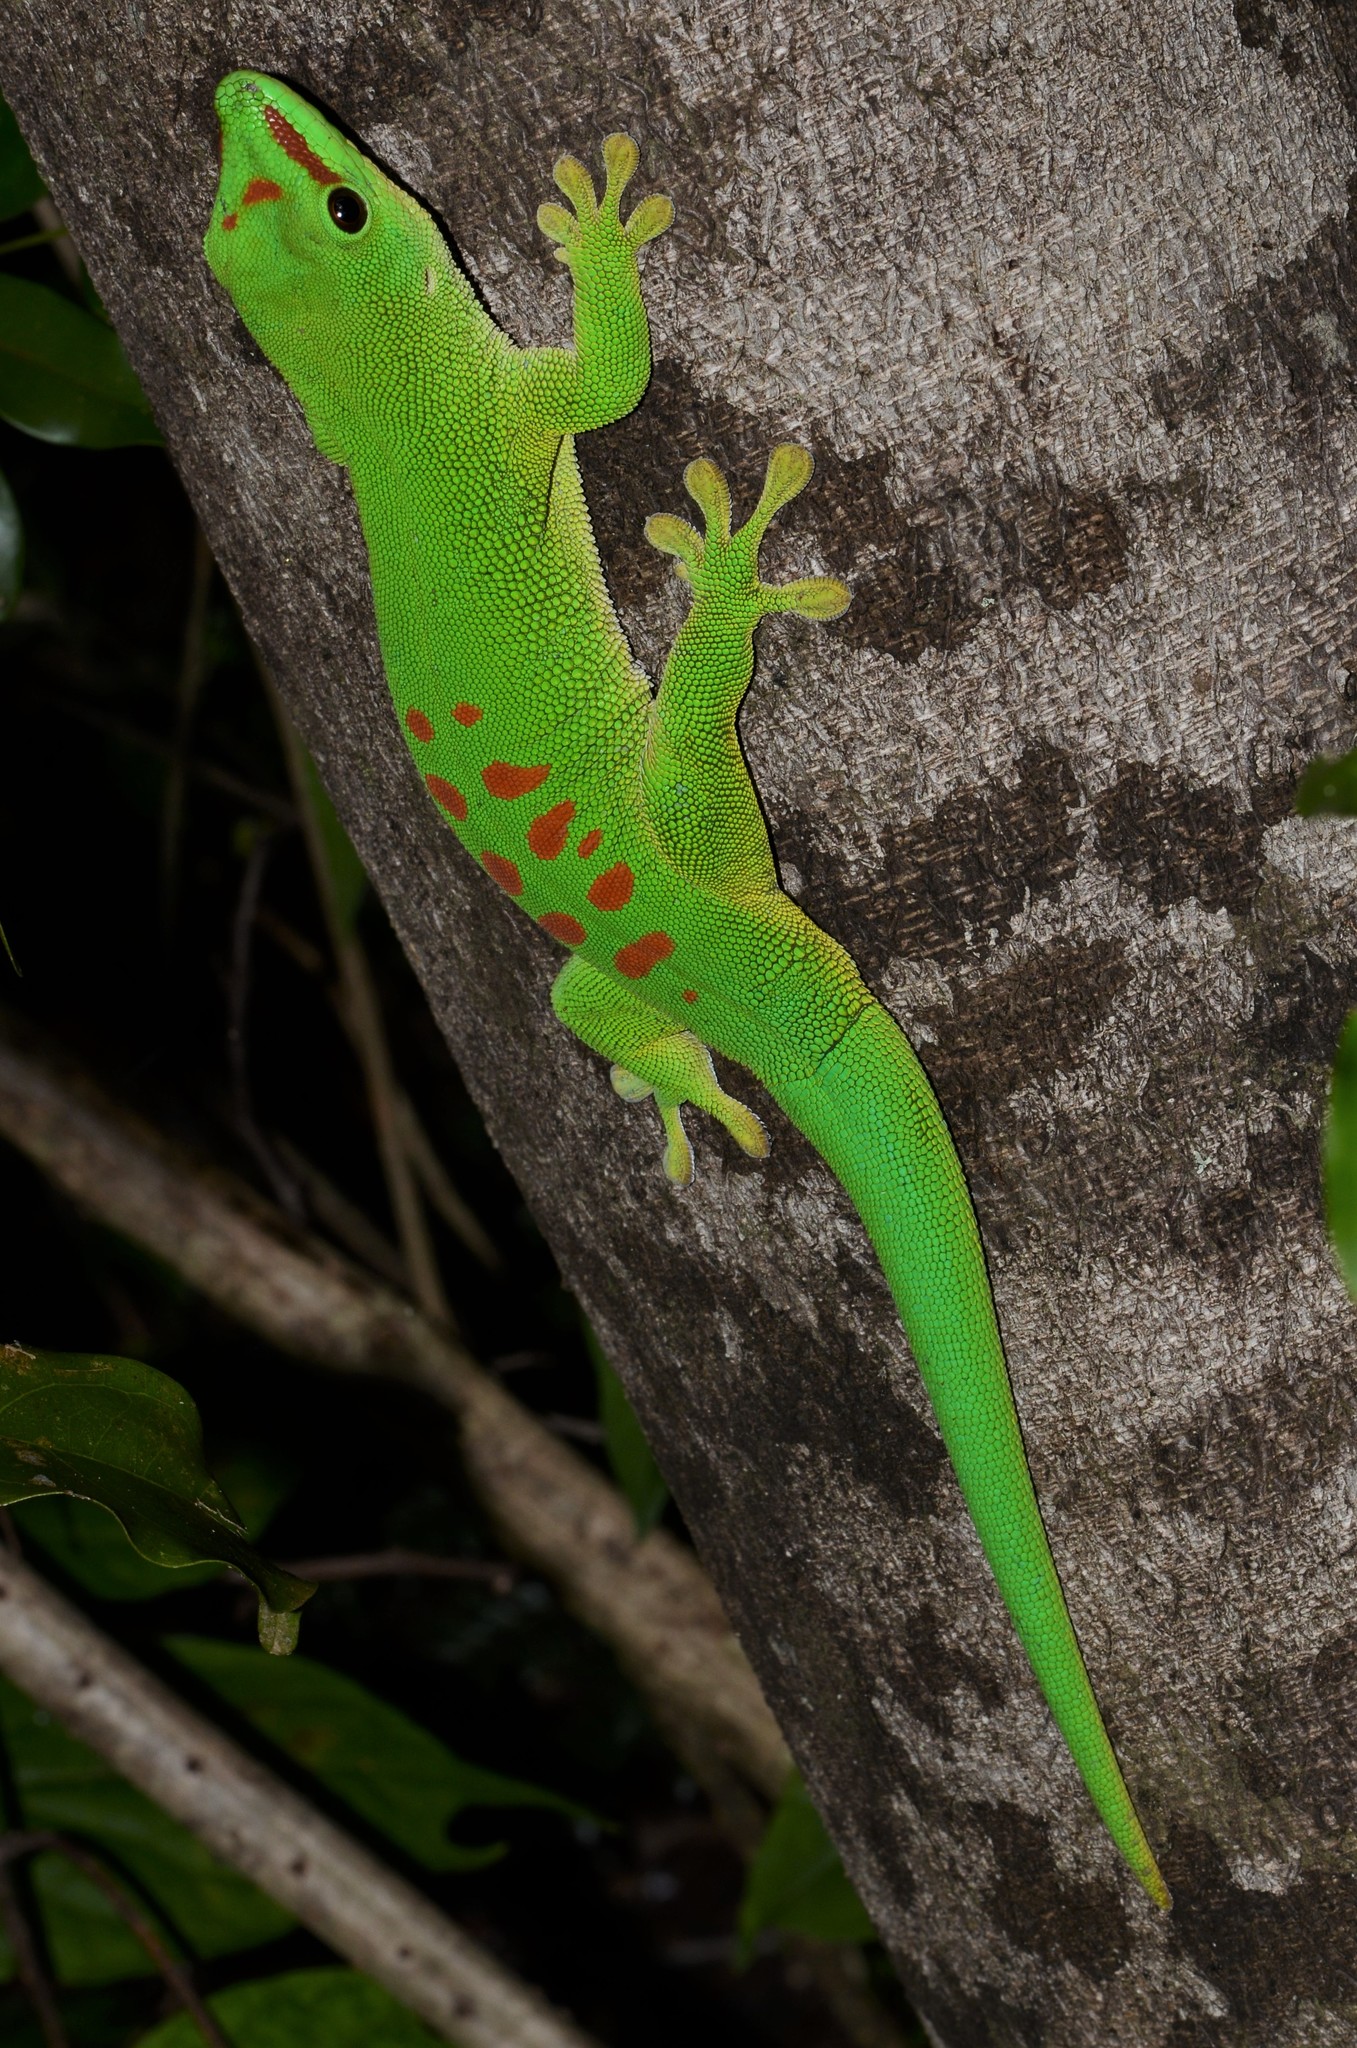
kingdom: Animalia
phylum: Chordata
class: Squamata
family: Gekkonidae
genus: Phelsuma
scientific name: Phelsuma grandis
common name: Madagascar giant day gecko
